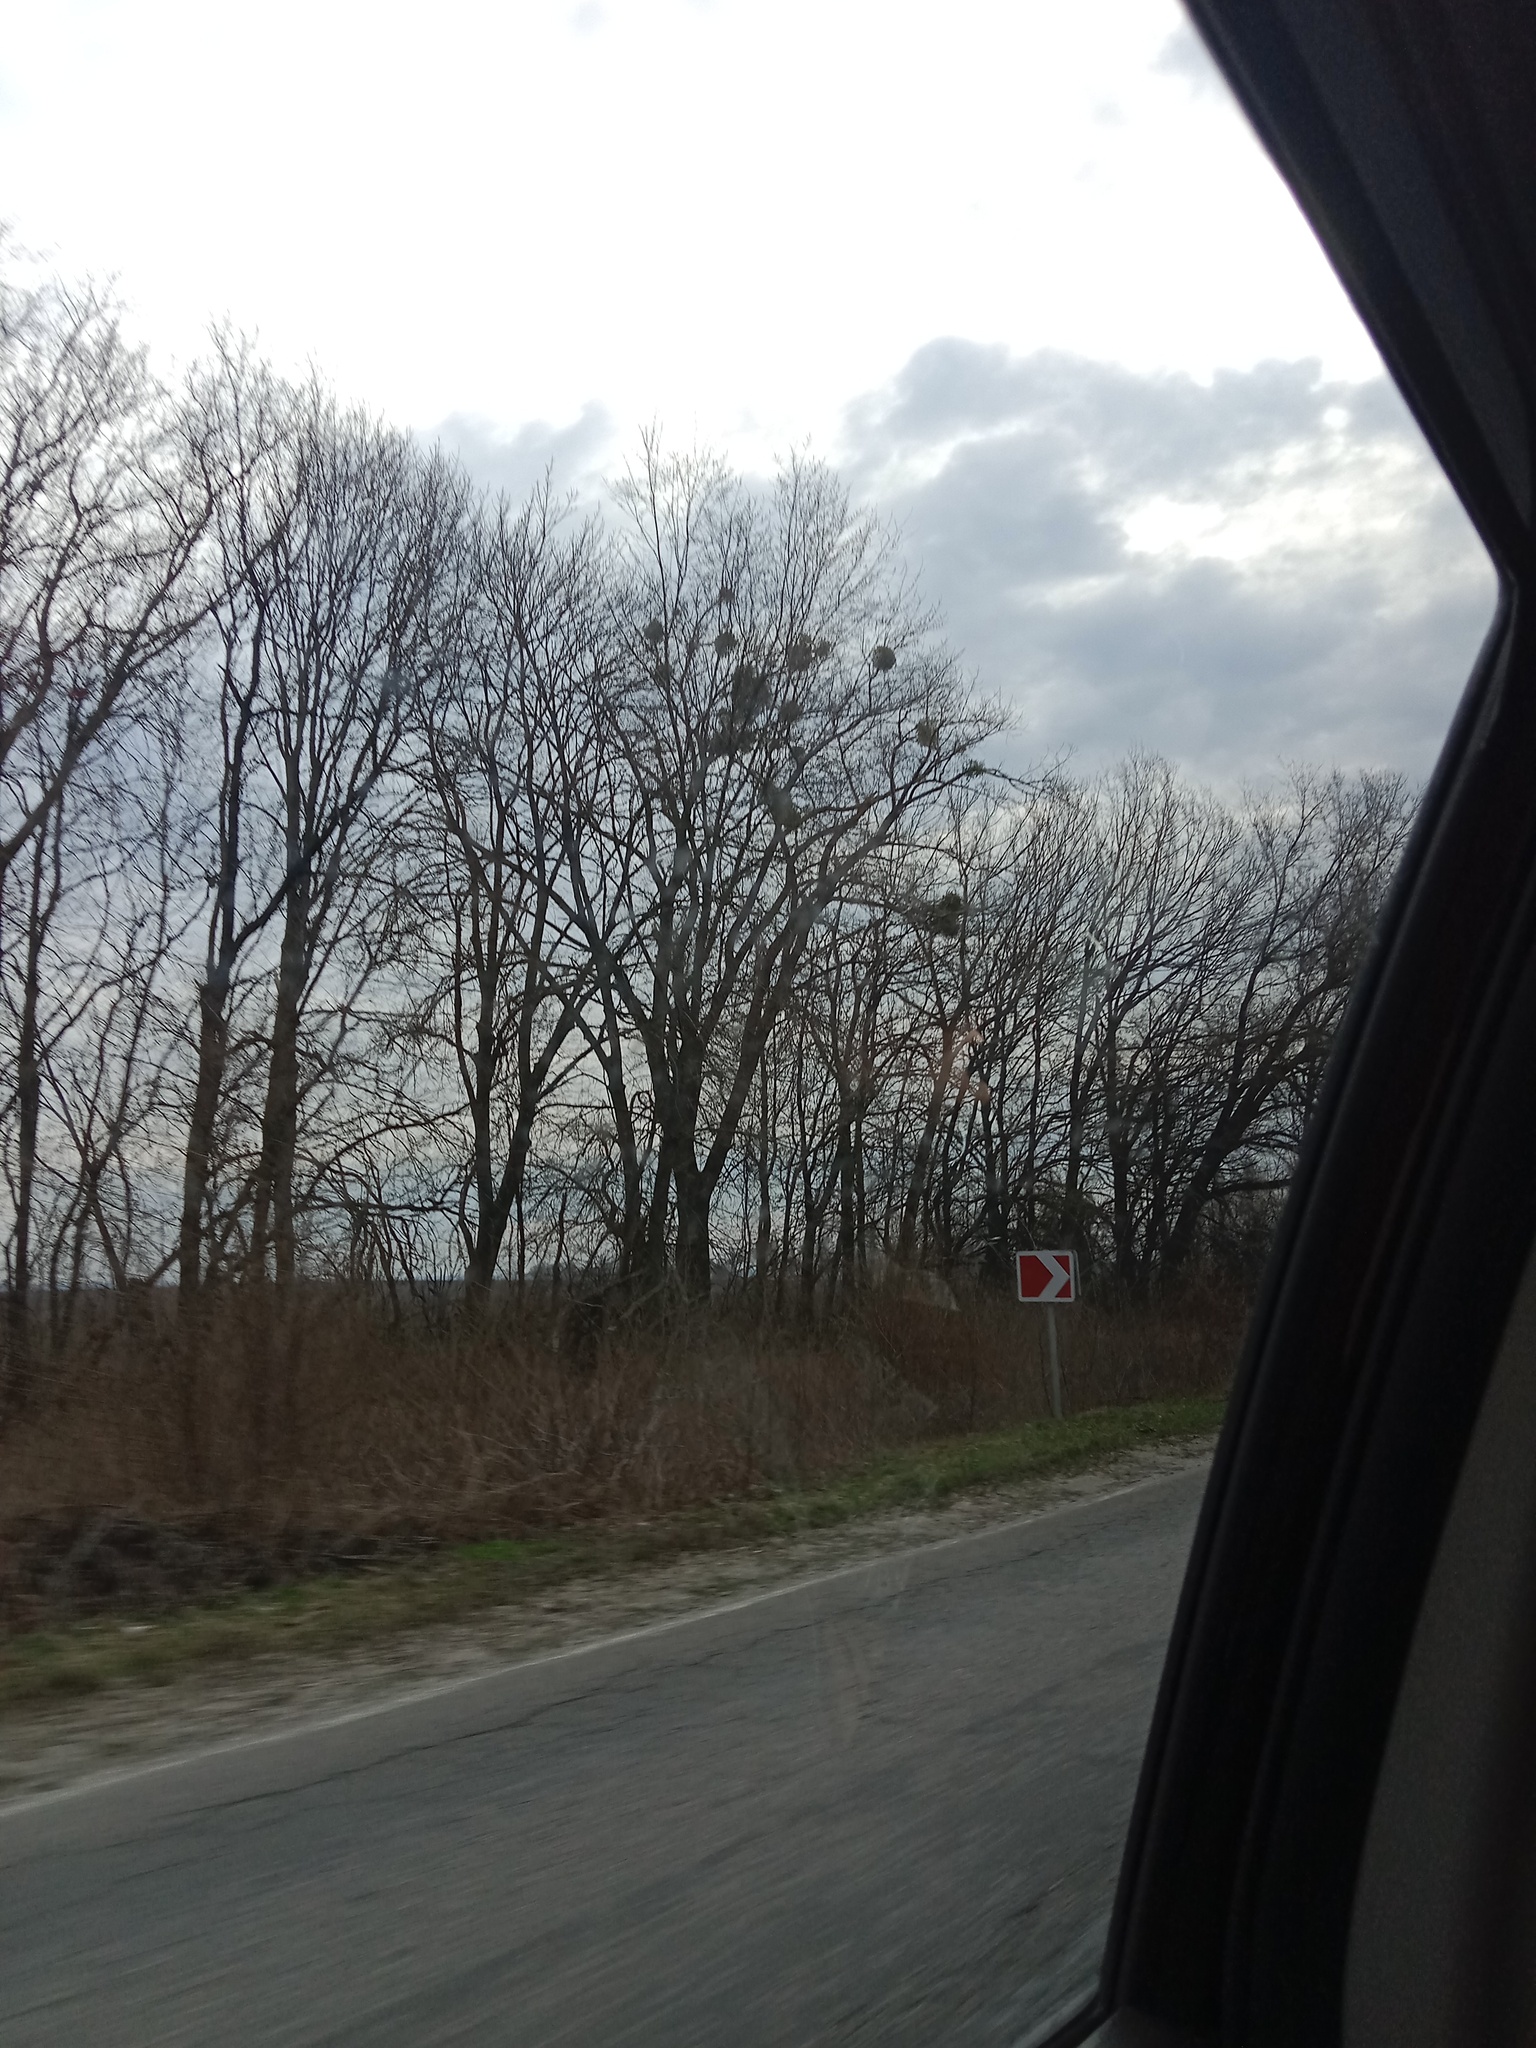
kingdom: Plantae
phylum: Tracheophyta
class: Magnoliopsida
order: Santalales
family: Viscaceae
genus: Viscum
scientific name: Viscum album
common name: Mistletoe
